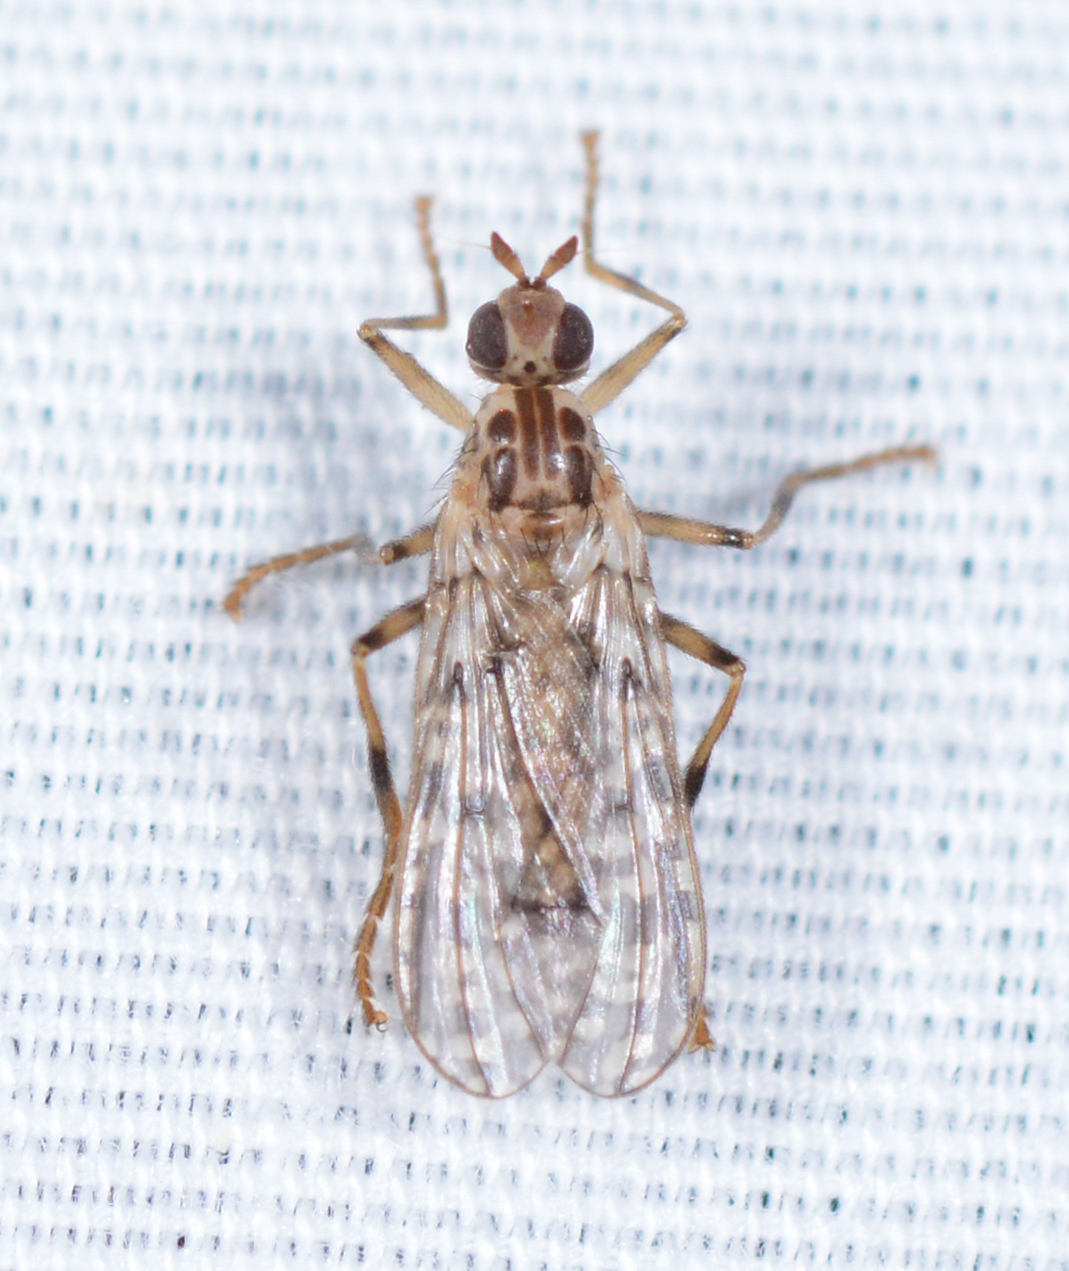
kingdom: Animalia
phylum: Arthropoda
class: Insecta
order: Diptera
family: Pyrgotidae
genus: Boreothrinax
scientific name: Boreothrinax
